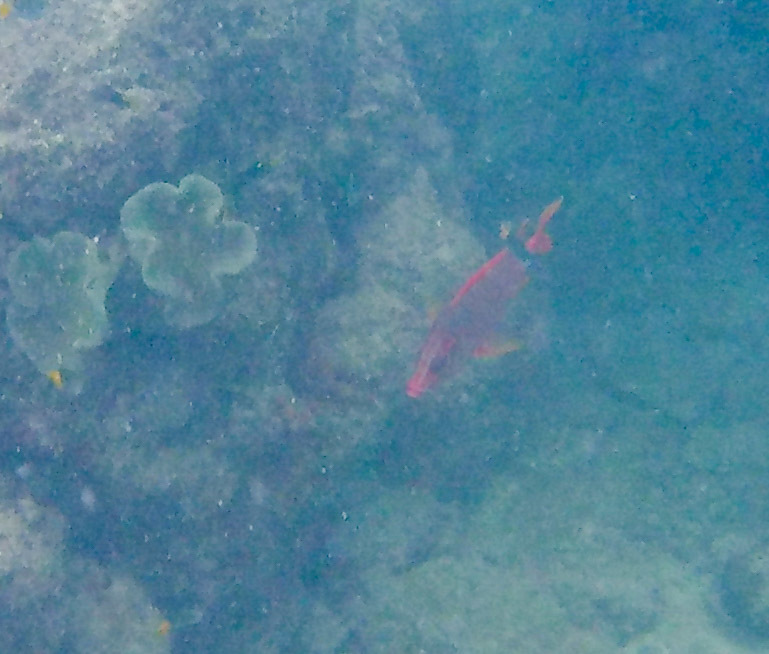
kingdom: Animalia
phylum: Chordata
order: Beryciformes
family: Holocentridae
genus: Sargocentron
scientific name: Sargocentron spiniferum
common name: Giant squirrelfish
